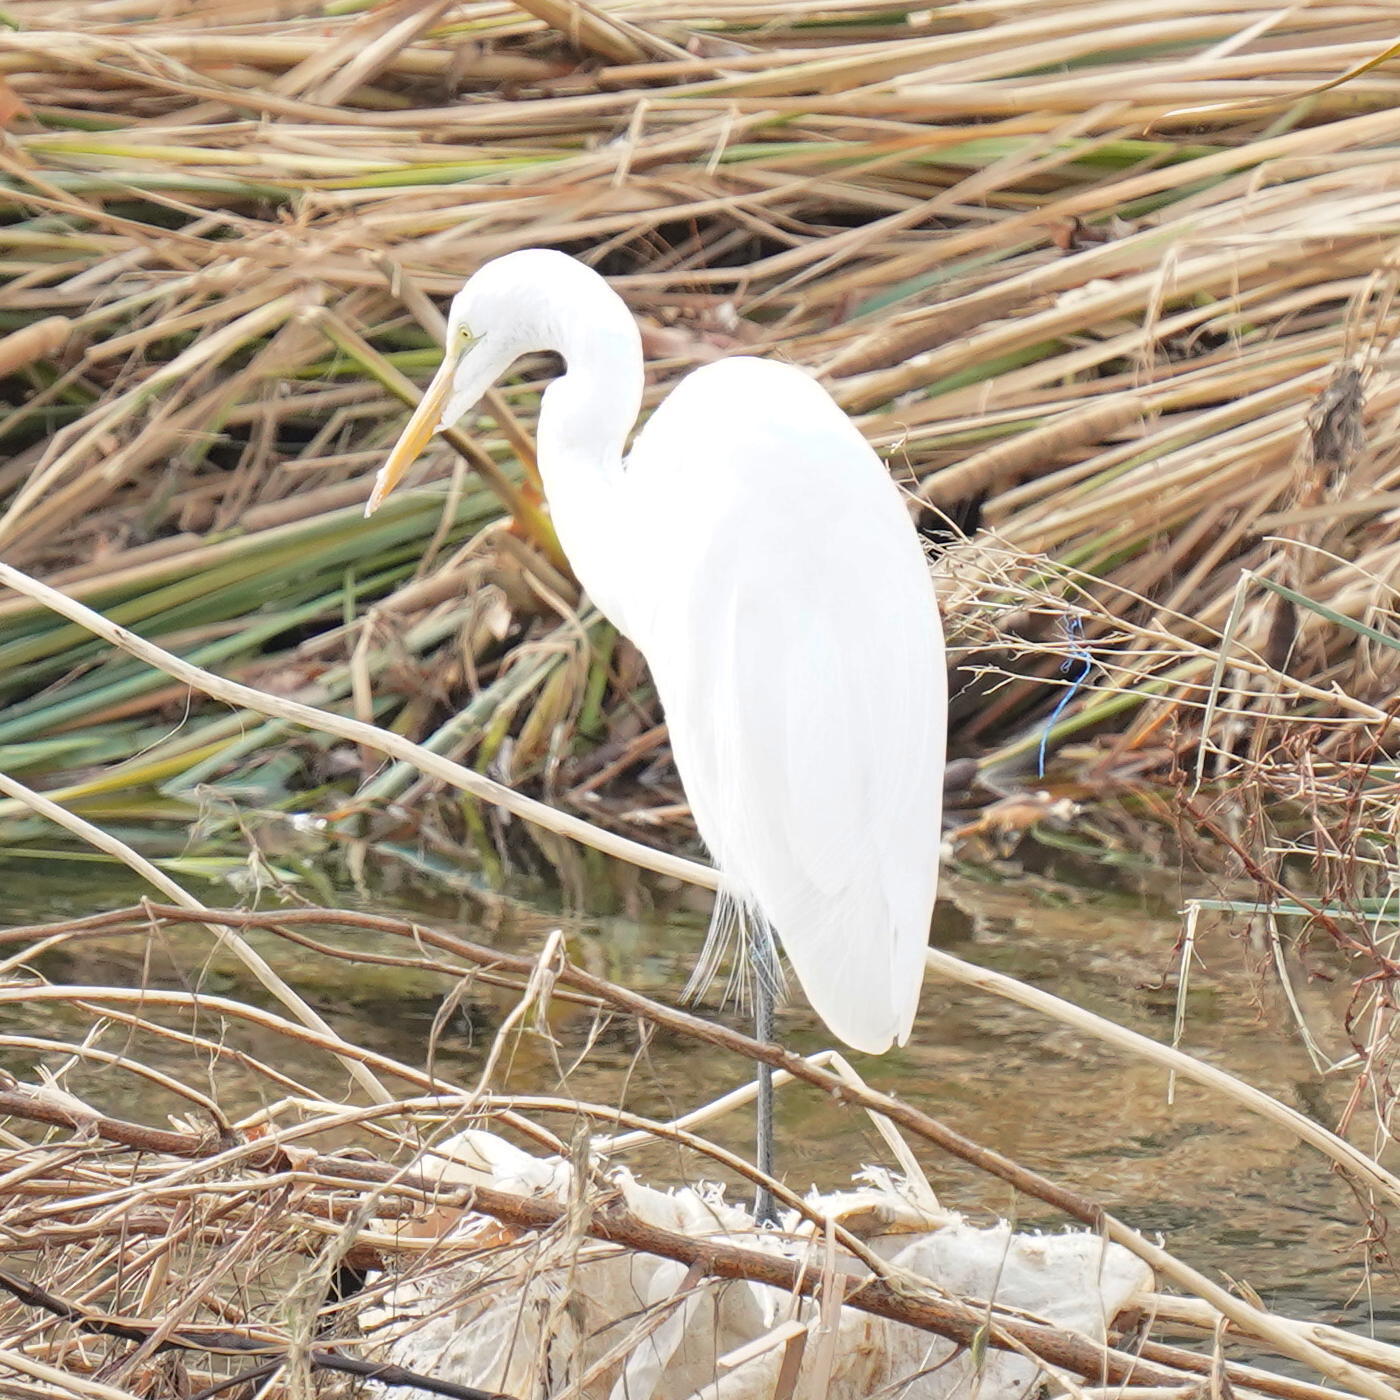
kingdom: Animalia
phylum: Chordata
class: Aves
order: Pelecaniformes
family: Ardeidae
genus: Ardea
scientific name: Ardea alba
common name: Great egret
